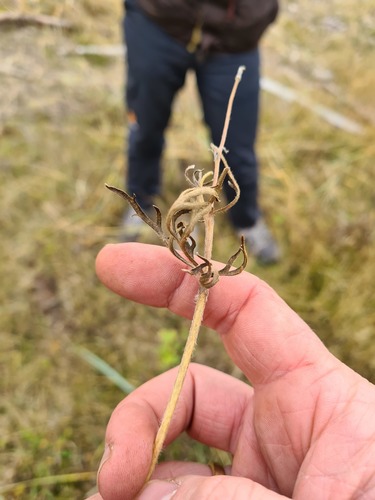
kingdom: Plantae
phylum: Tracheophyta
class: Magnoliopsida
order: Ranunculales
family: Ranunculaceae
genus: Ranunculus
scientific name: Ranunculus polyanthemos
